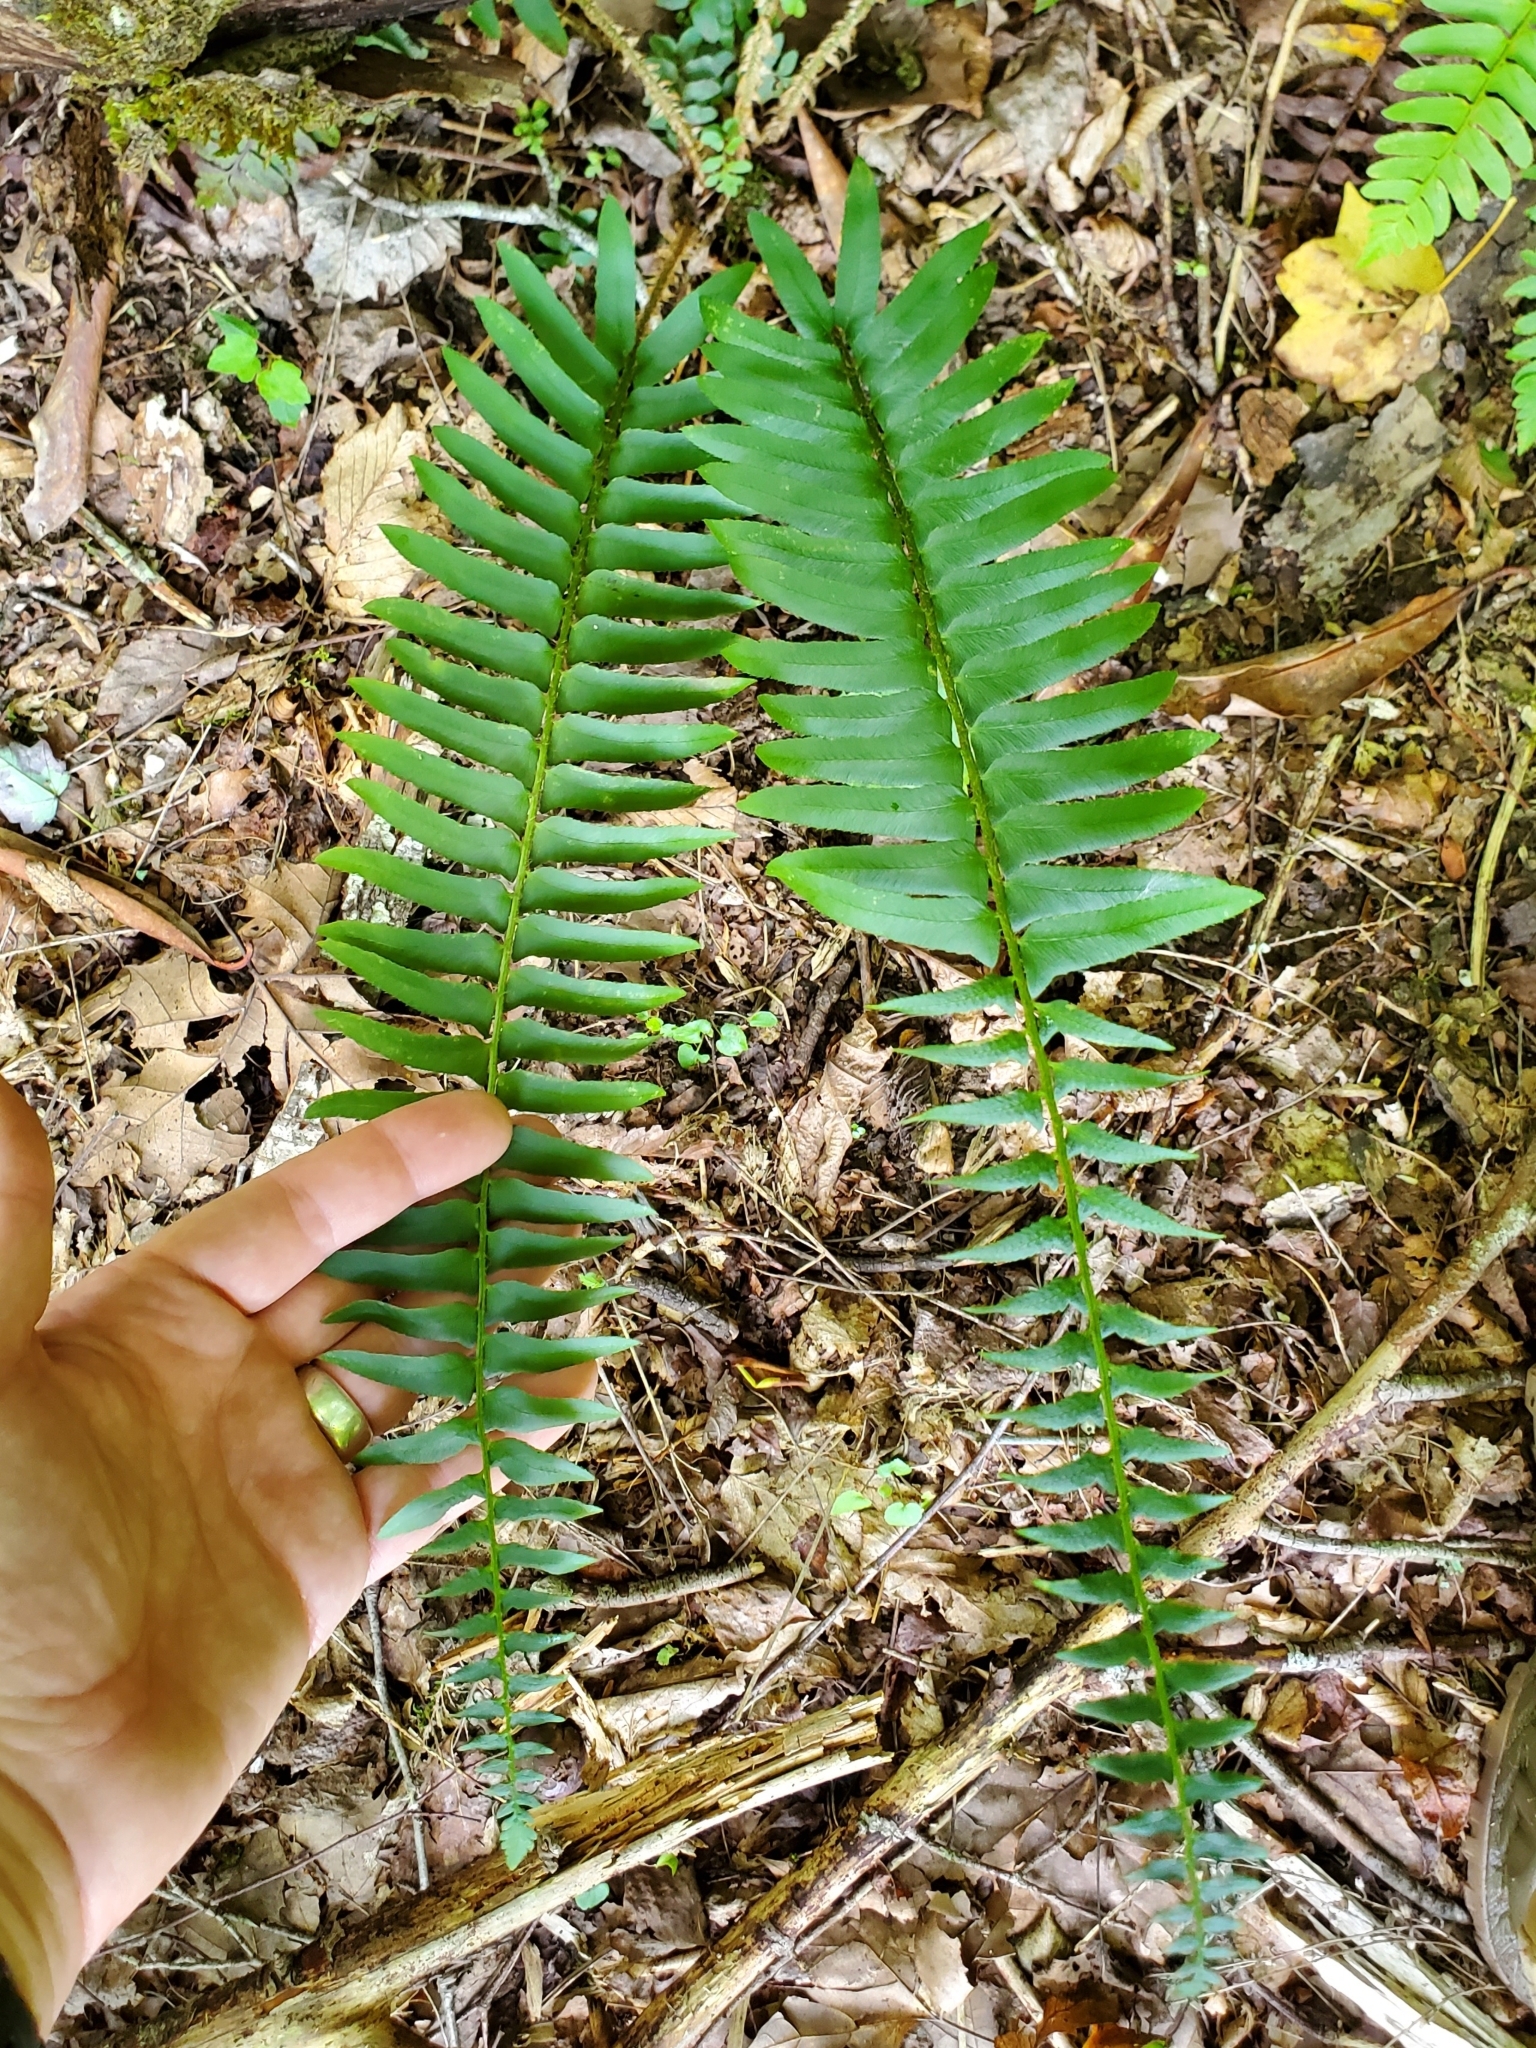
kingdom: Plantae
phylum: Tracheophyta
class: Polypodiopsida
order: Polypodiales
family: Dryopteridaceae
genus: Polystichum
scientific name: Polystichum acrostichoides
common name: Christmas fern
